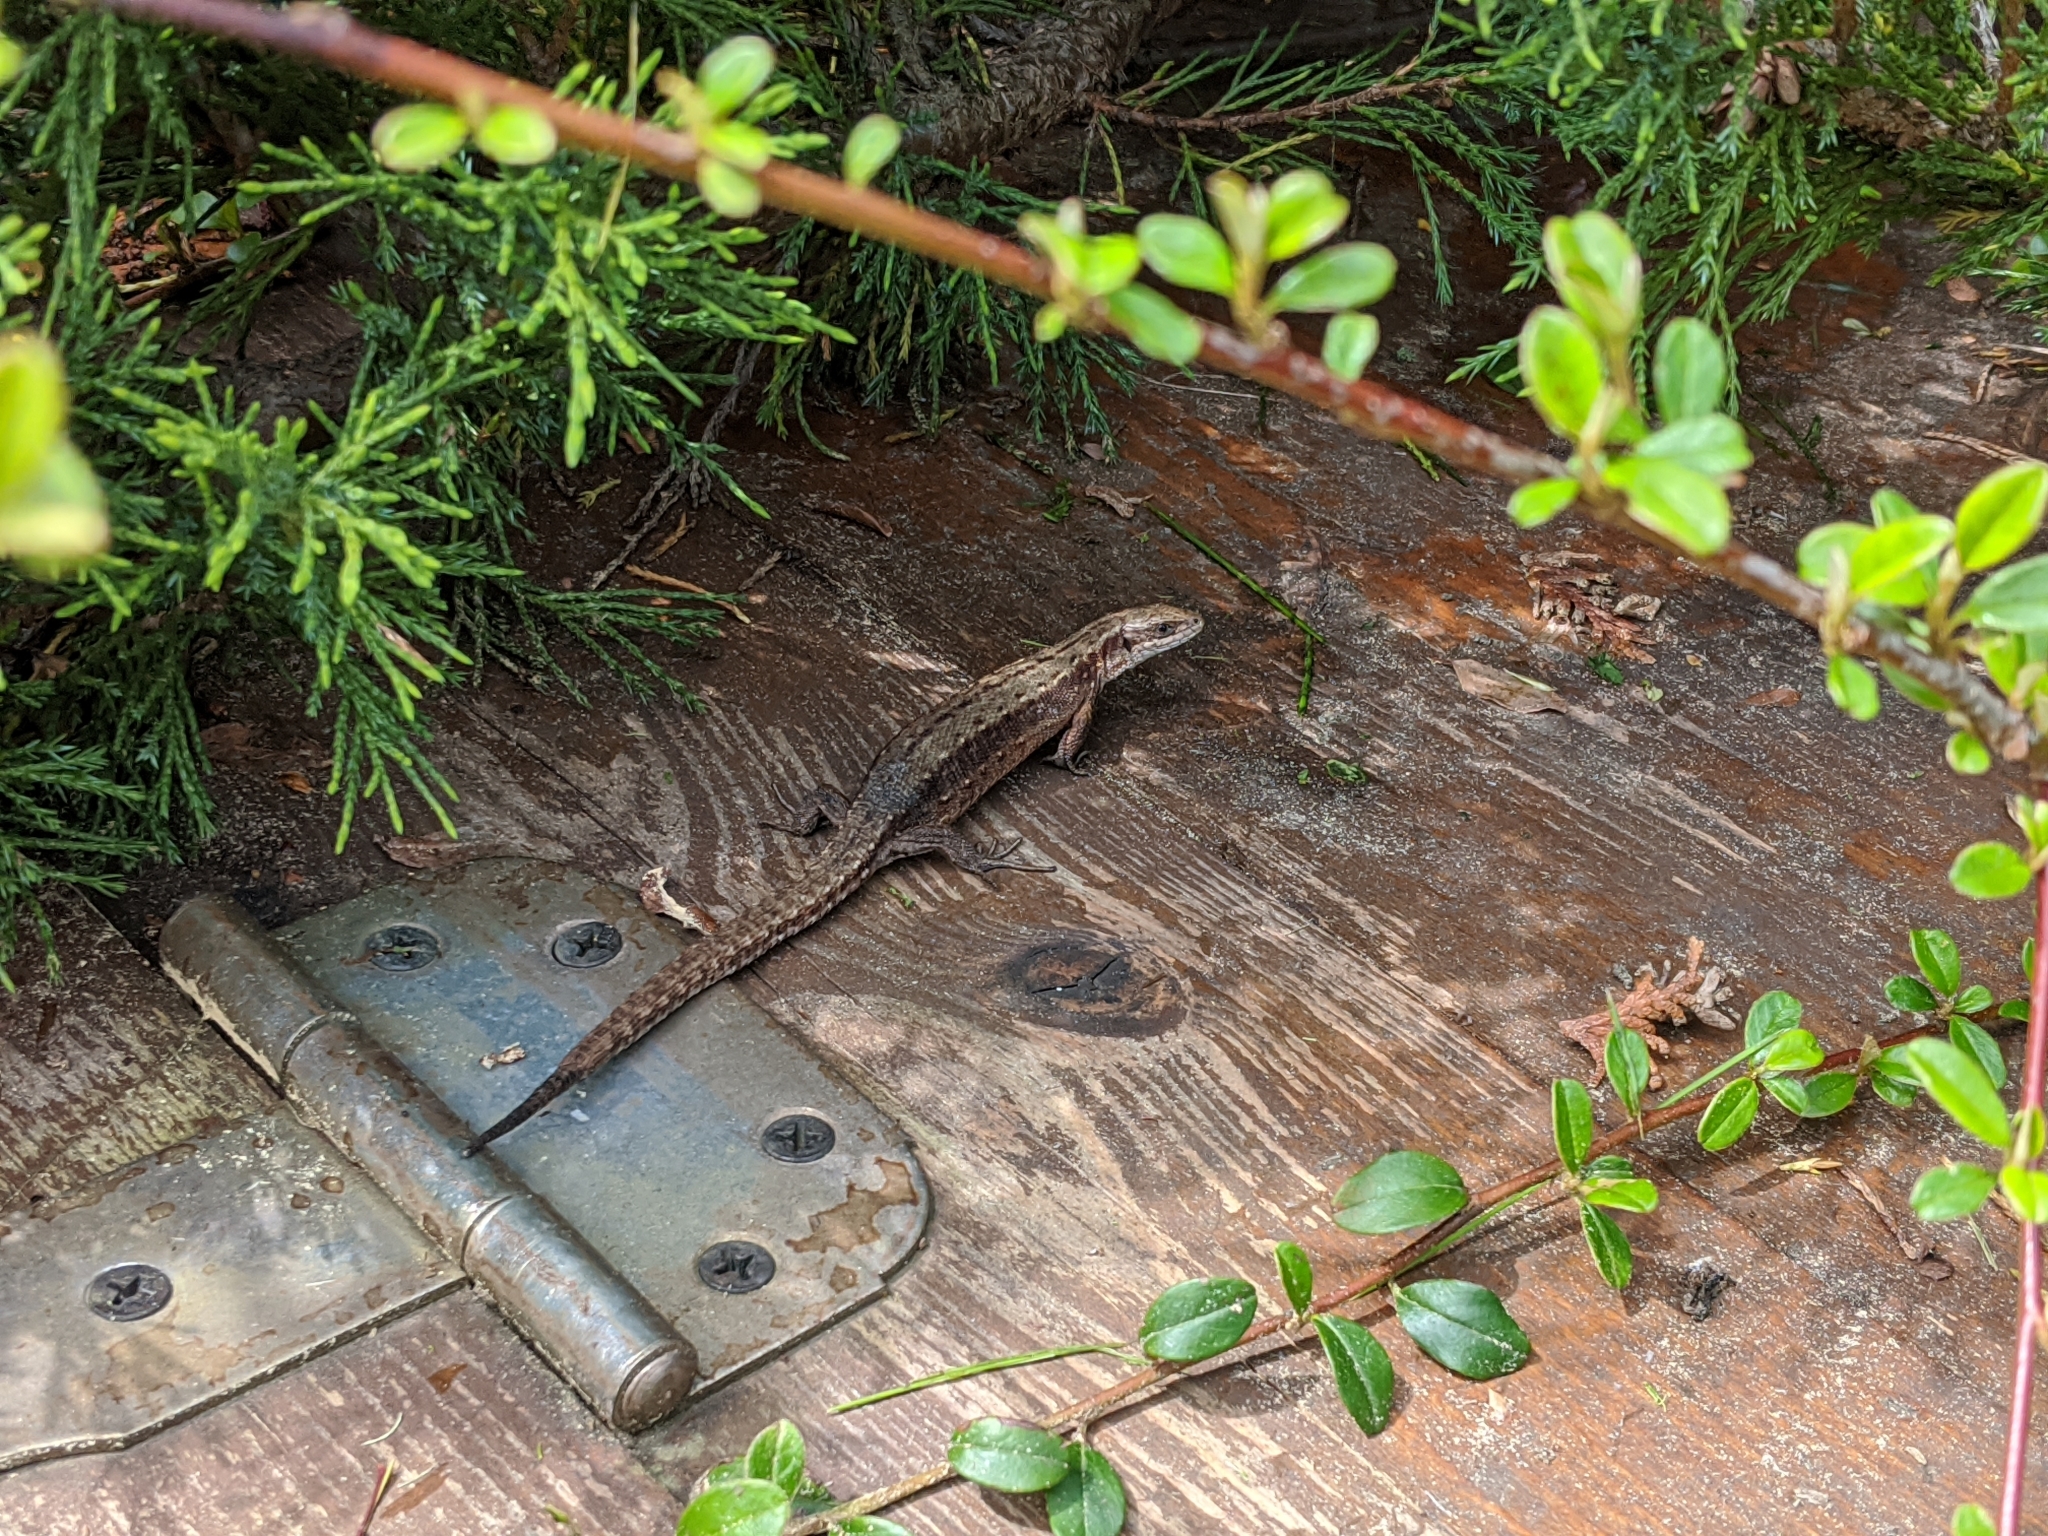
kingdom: Animalia
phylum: Chordata
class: Squamata
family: Lacertidae
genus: Zootoca
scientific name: Zootoca vivipara
